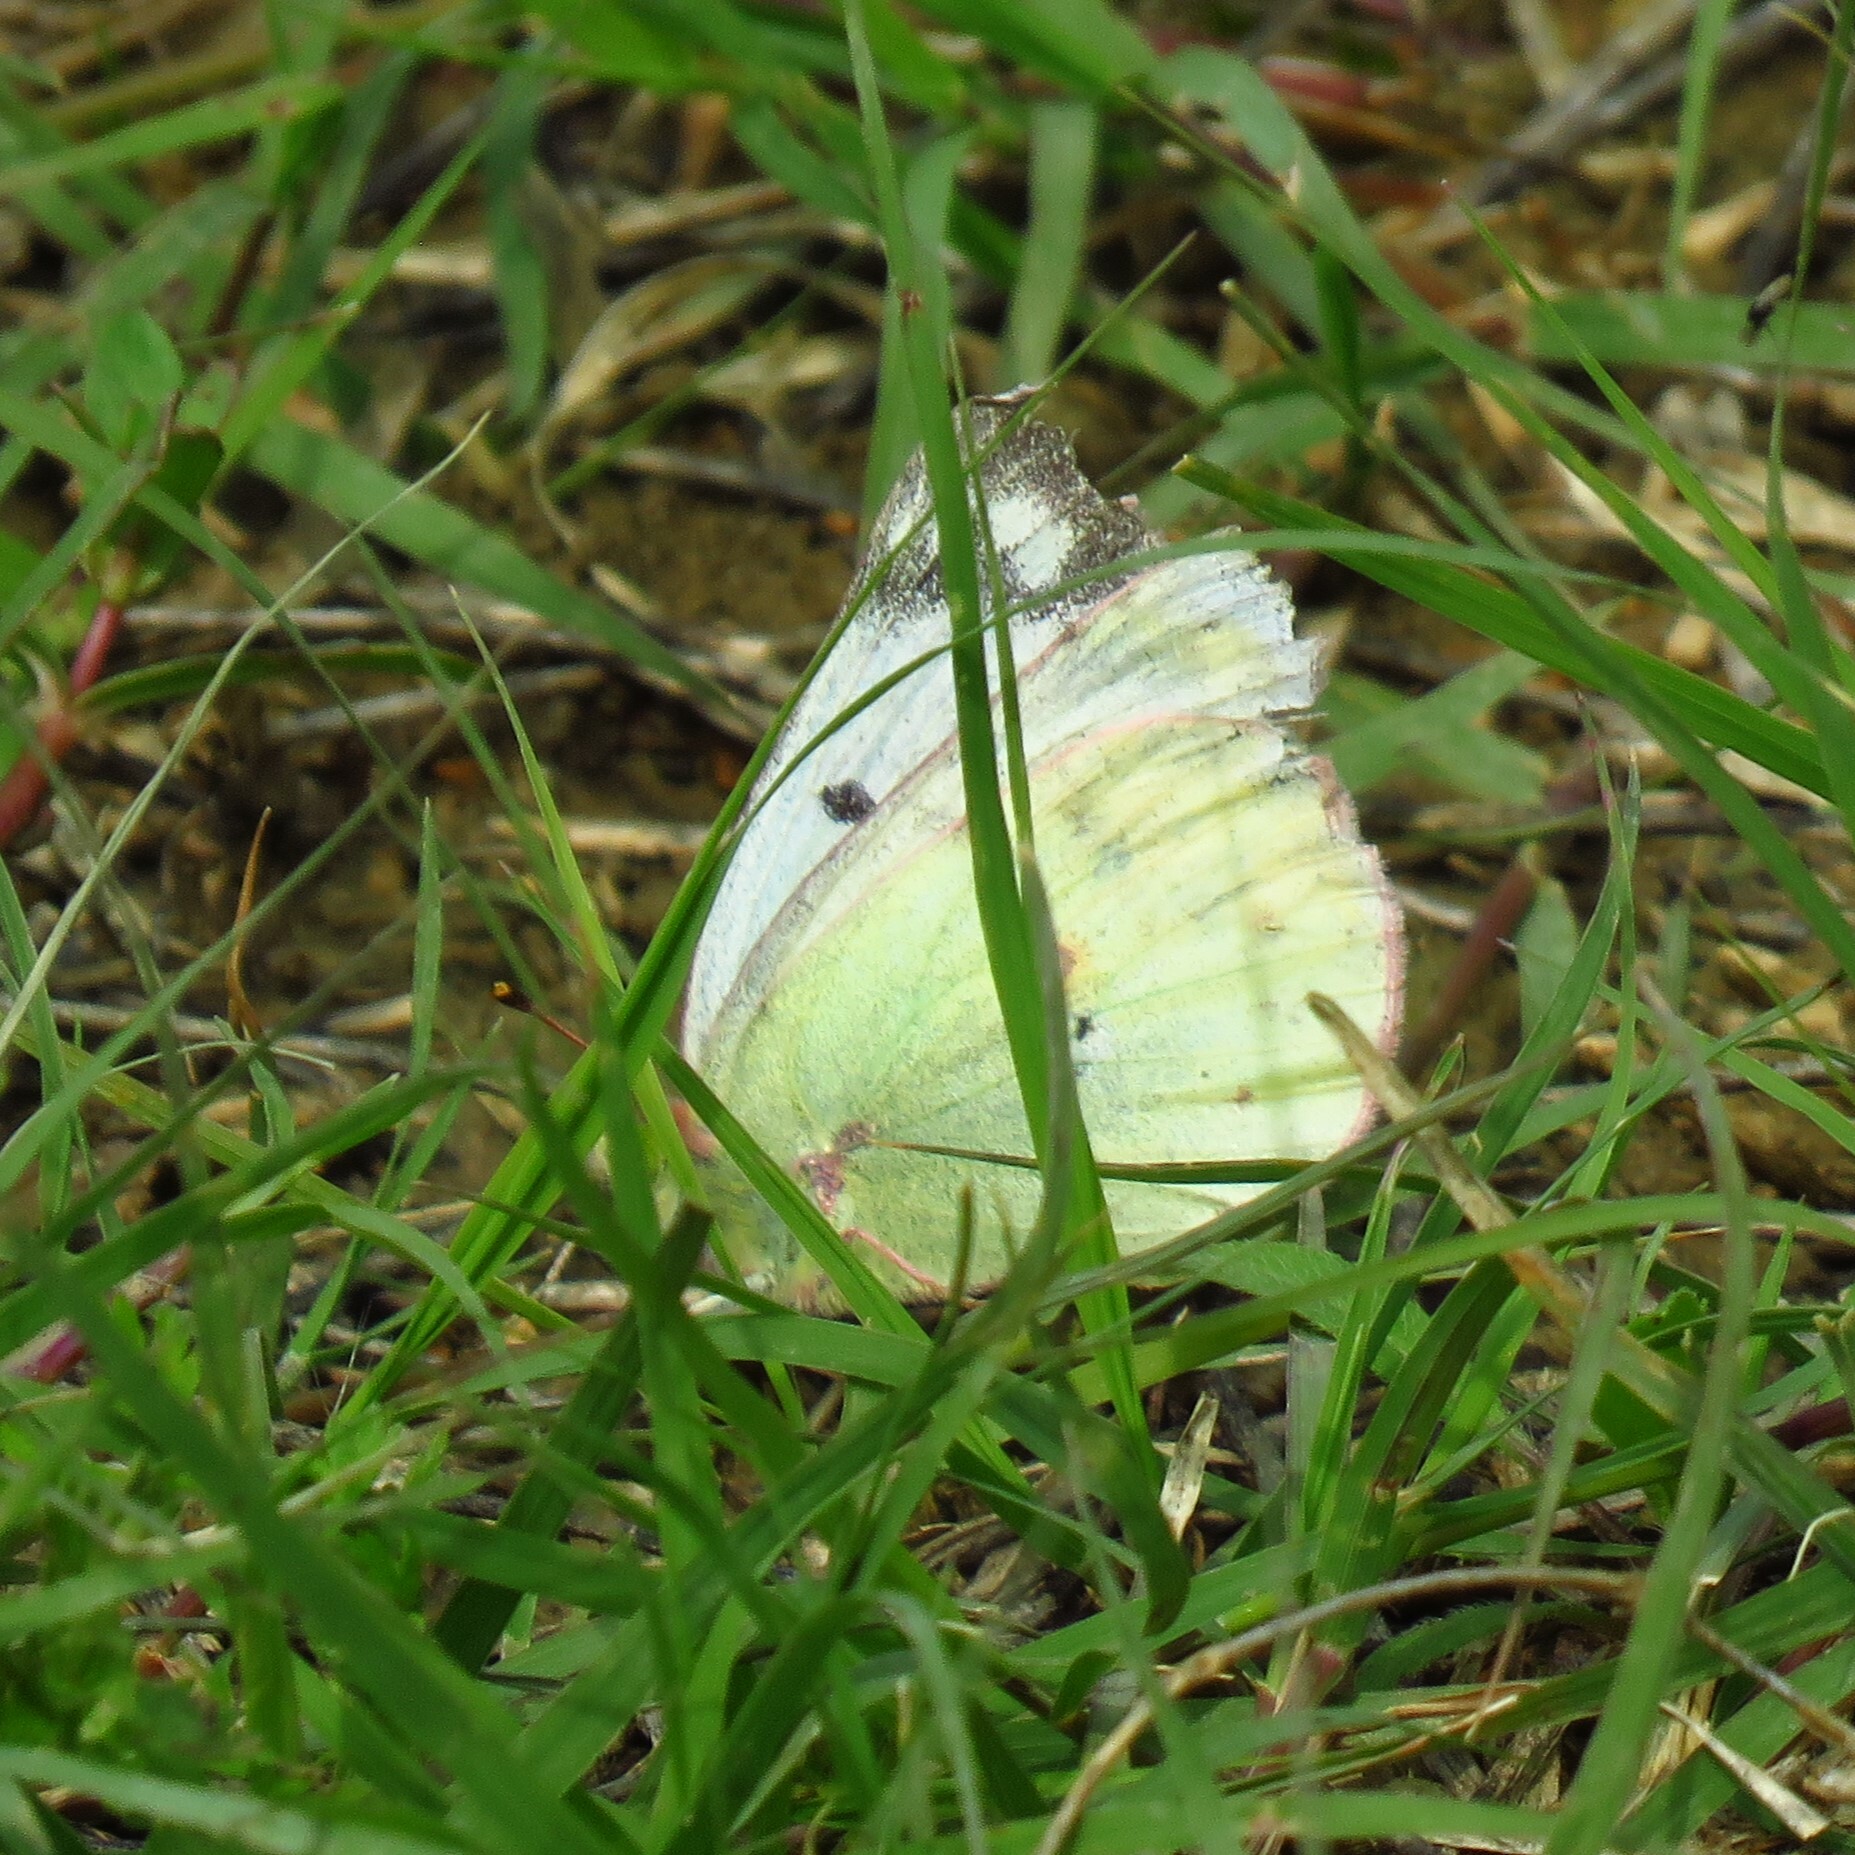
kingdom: Animalia
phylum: Arthropoda
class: Insecta
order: Lepidoptera
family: Pieridae
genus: Colias
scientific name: Colias eurytheme
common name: Alfalfa butterfly
